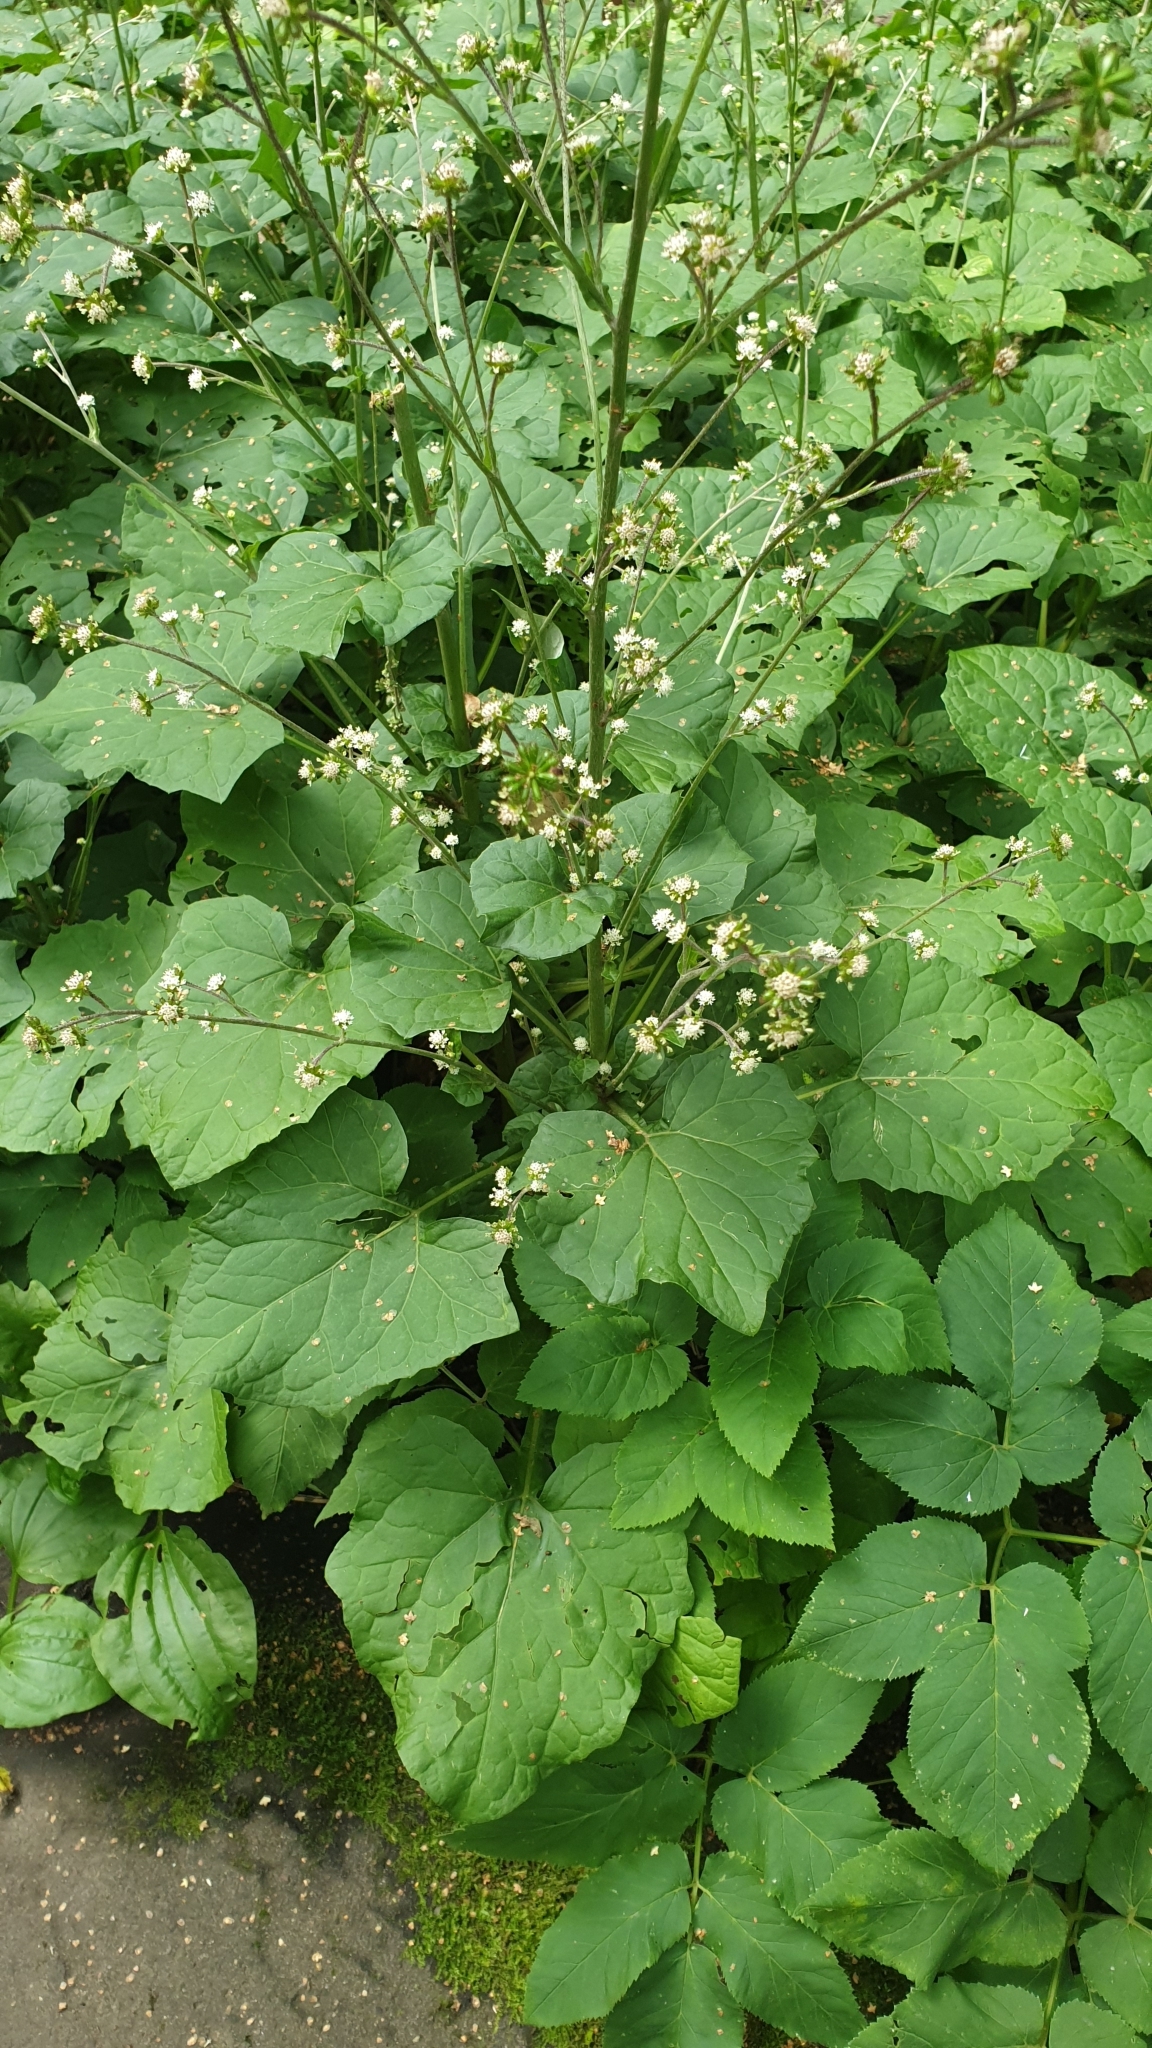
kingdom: Plantae
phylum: Tracheophyta
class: Magnoliopsida
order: Asterales
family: Asteraceae
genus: Adenocaulon
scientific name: Adenocaulon himalaicum
